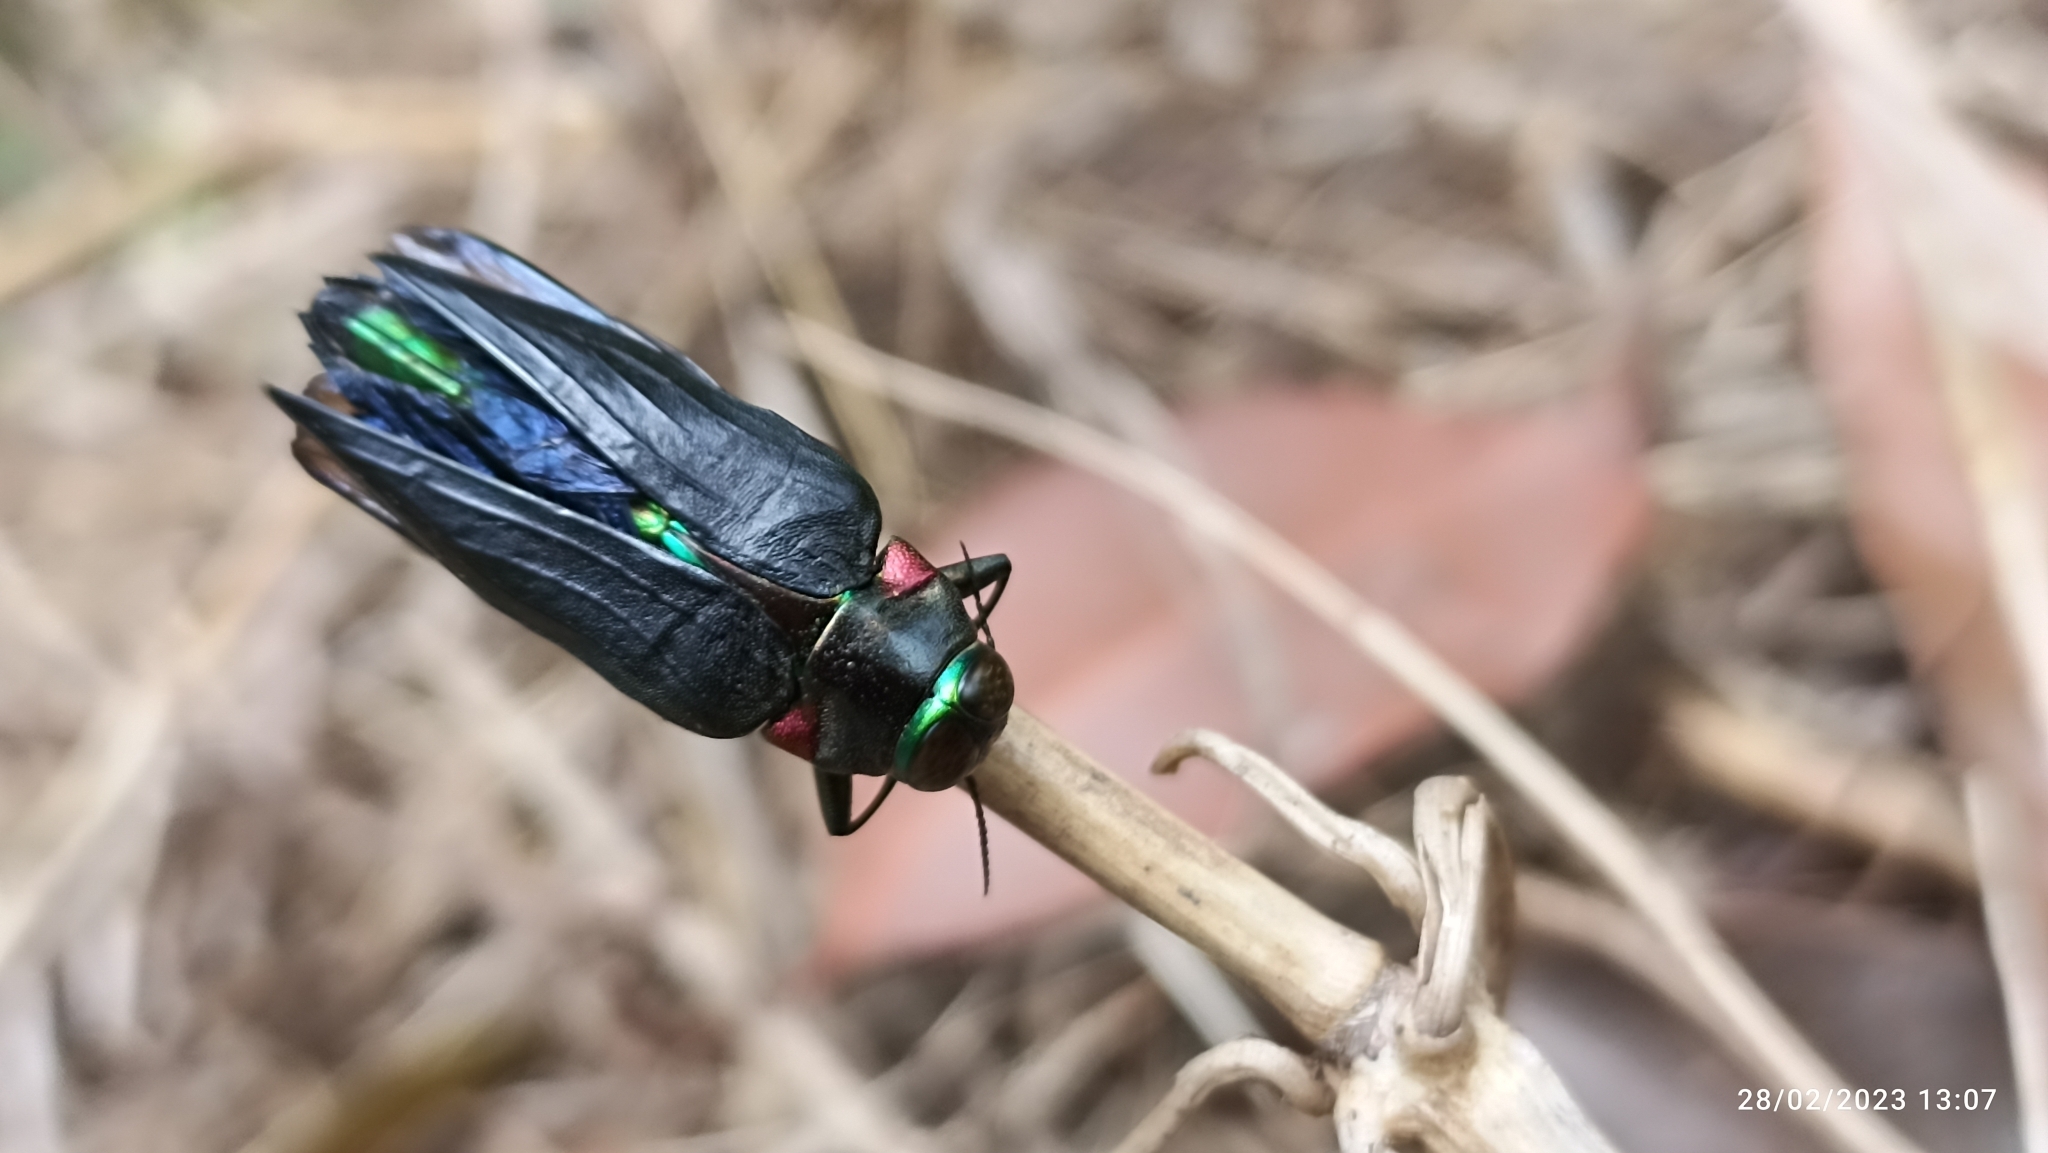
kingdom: Animalia
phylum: Arthropoda
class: Insecta
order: Coleoptera
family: Buprestidae
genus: Belionota
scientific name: Belionota prasina
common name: Jewel beetle
